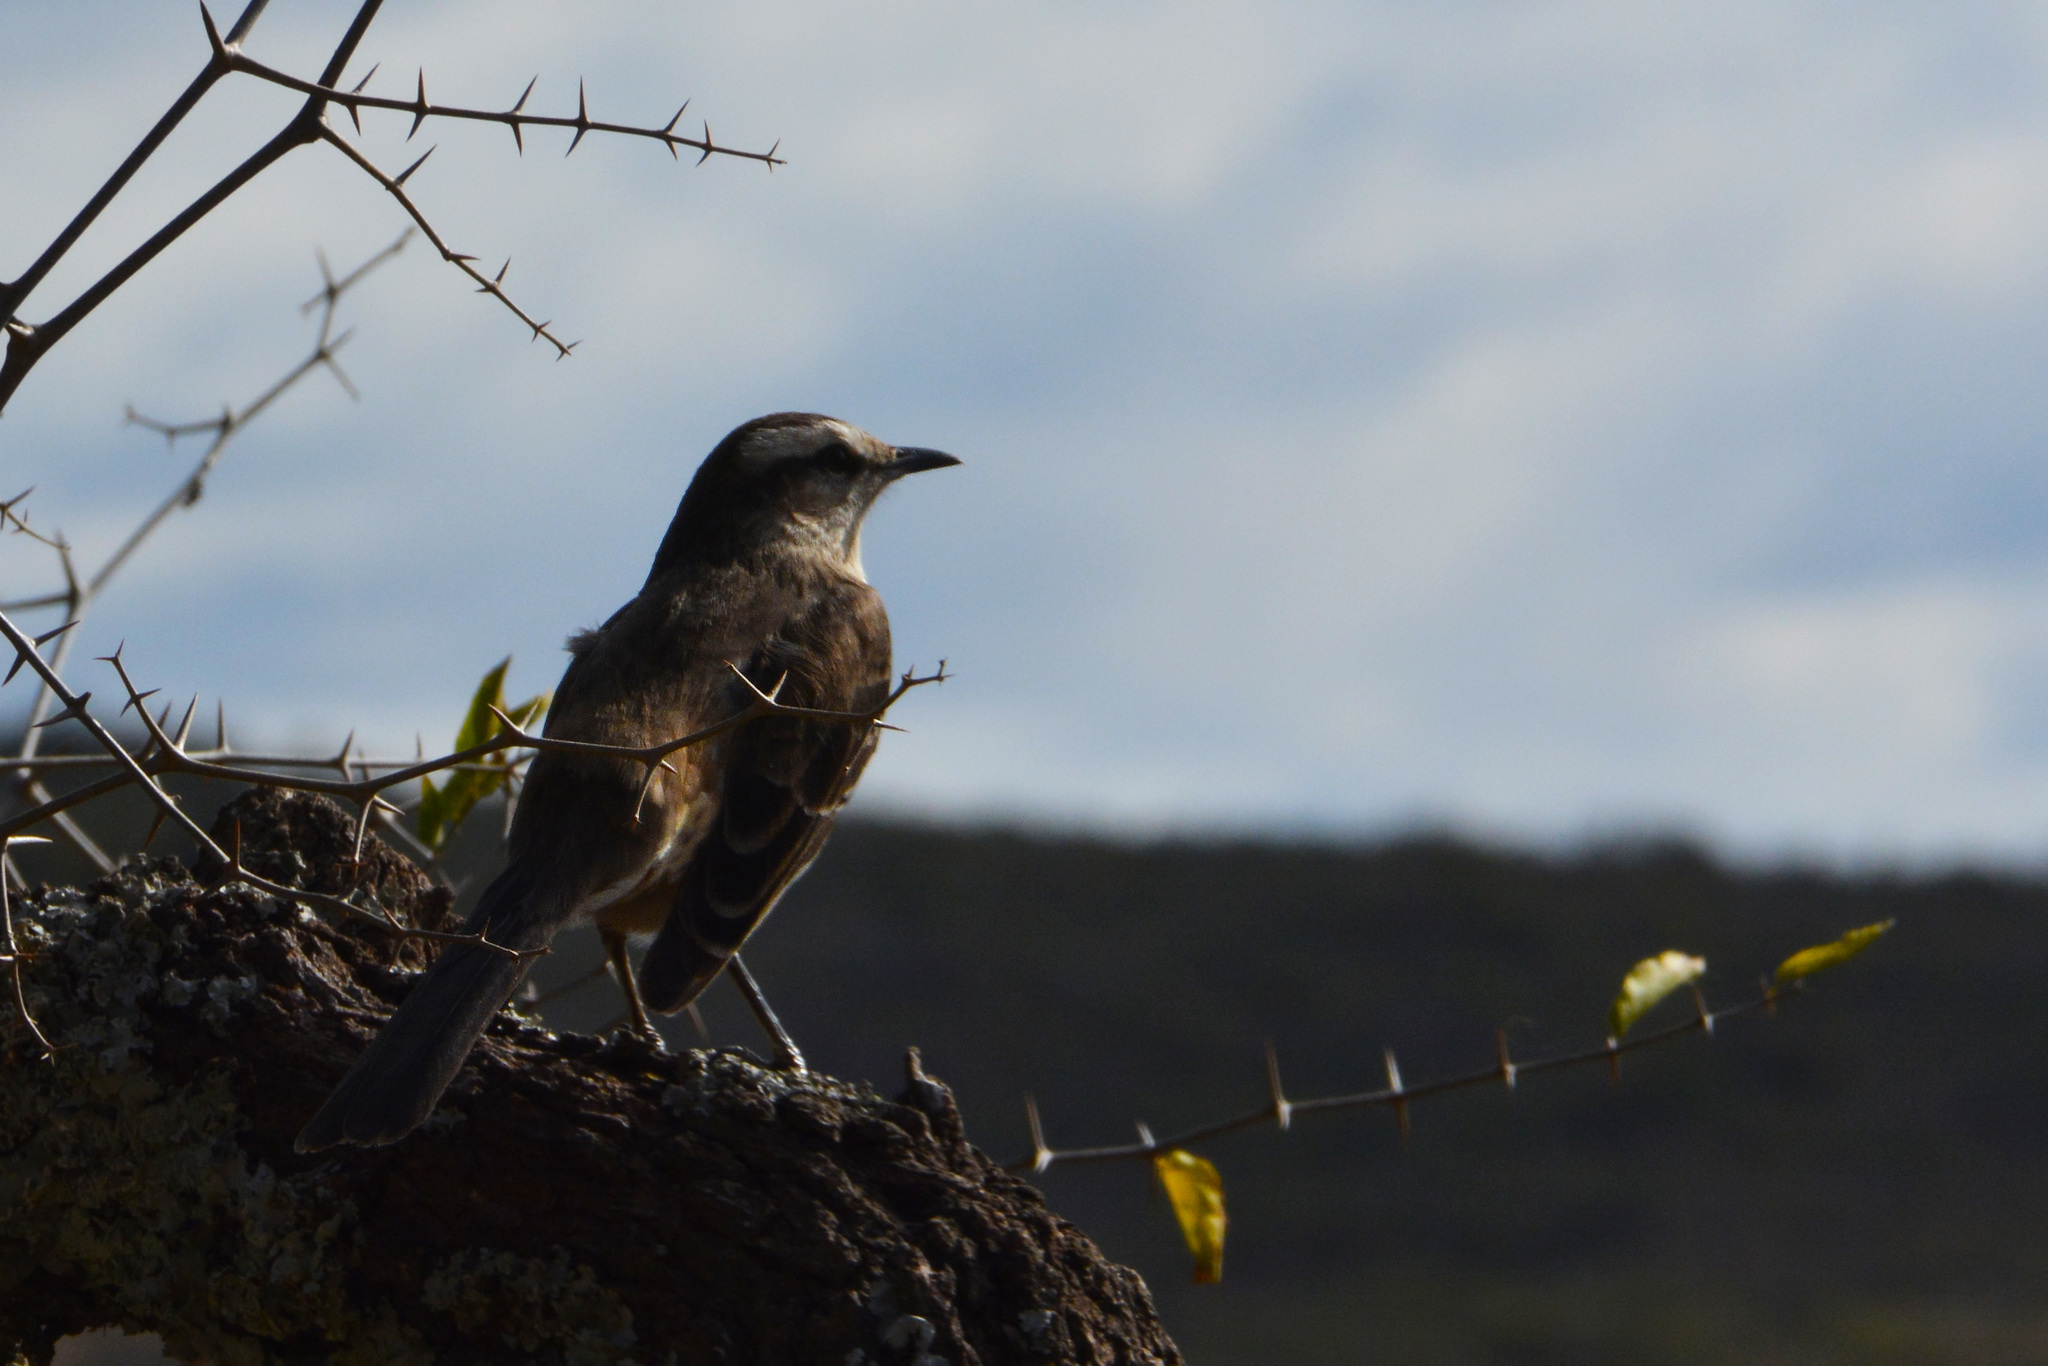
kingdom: Animalia
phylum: Chordata
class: Aves
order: Passeriformes
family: Mimidae
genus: Mimus
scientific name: Mimus saturninus
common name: Chalk-browed mockingbird
